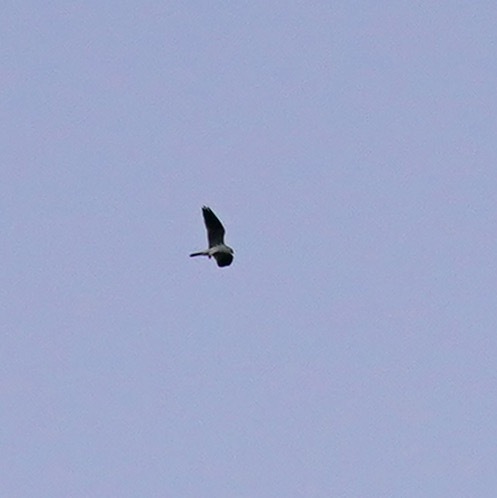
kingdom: Animalia
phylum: Chordata
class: Aves
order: Accipitriformes
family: Accipitridae
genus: Elanus
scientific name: Elanus leucurus
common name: White-tailed kite
